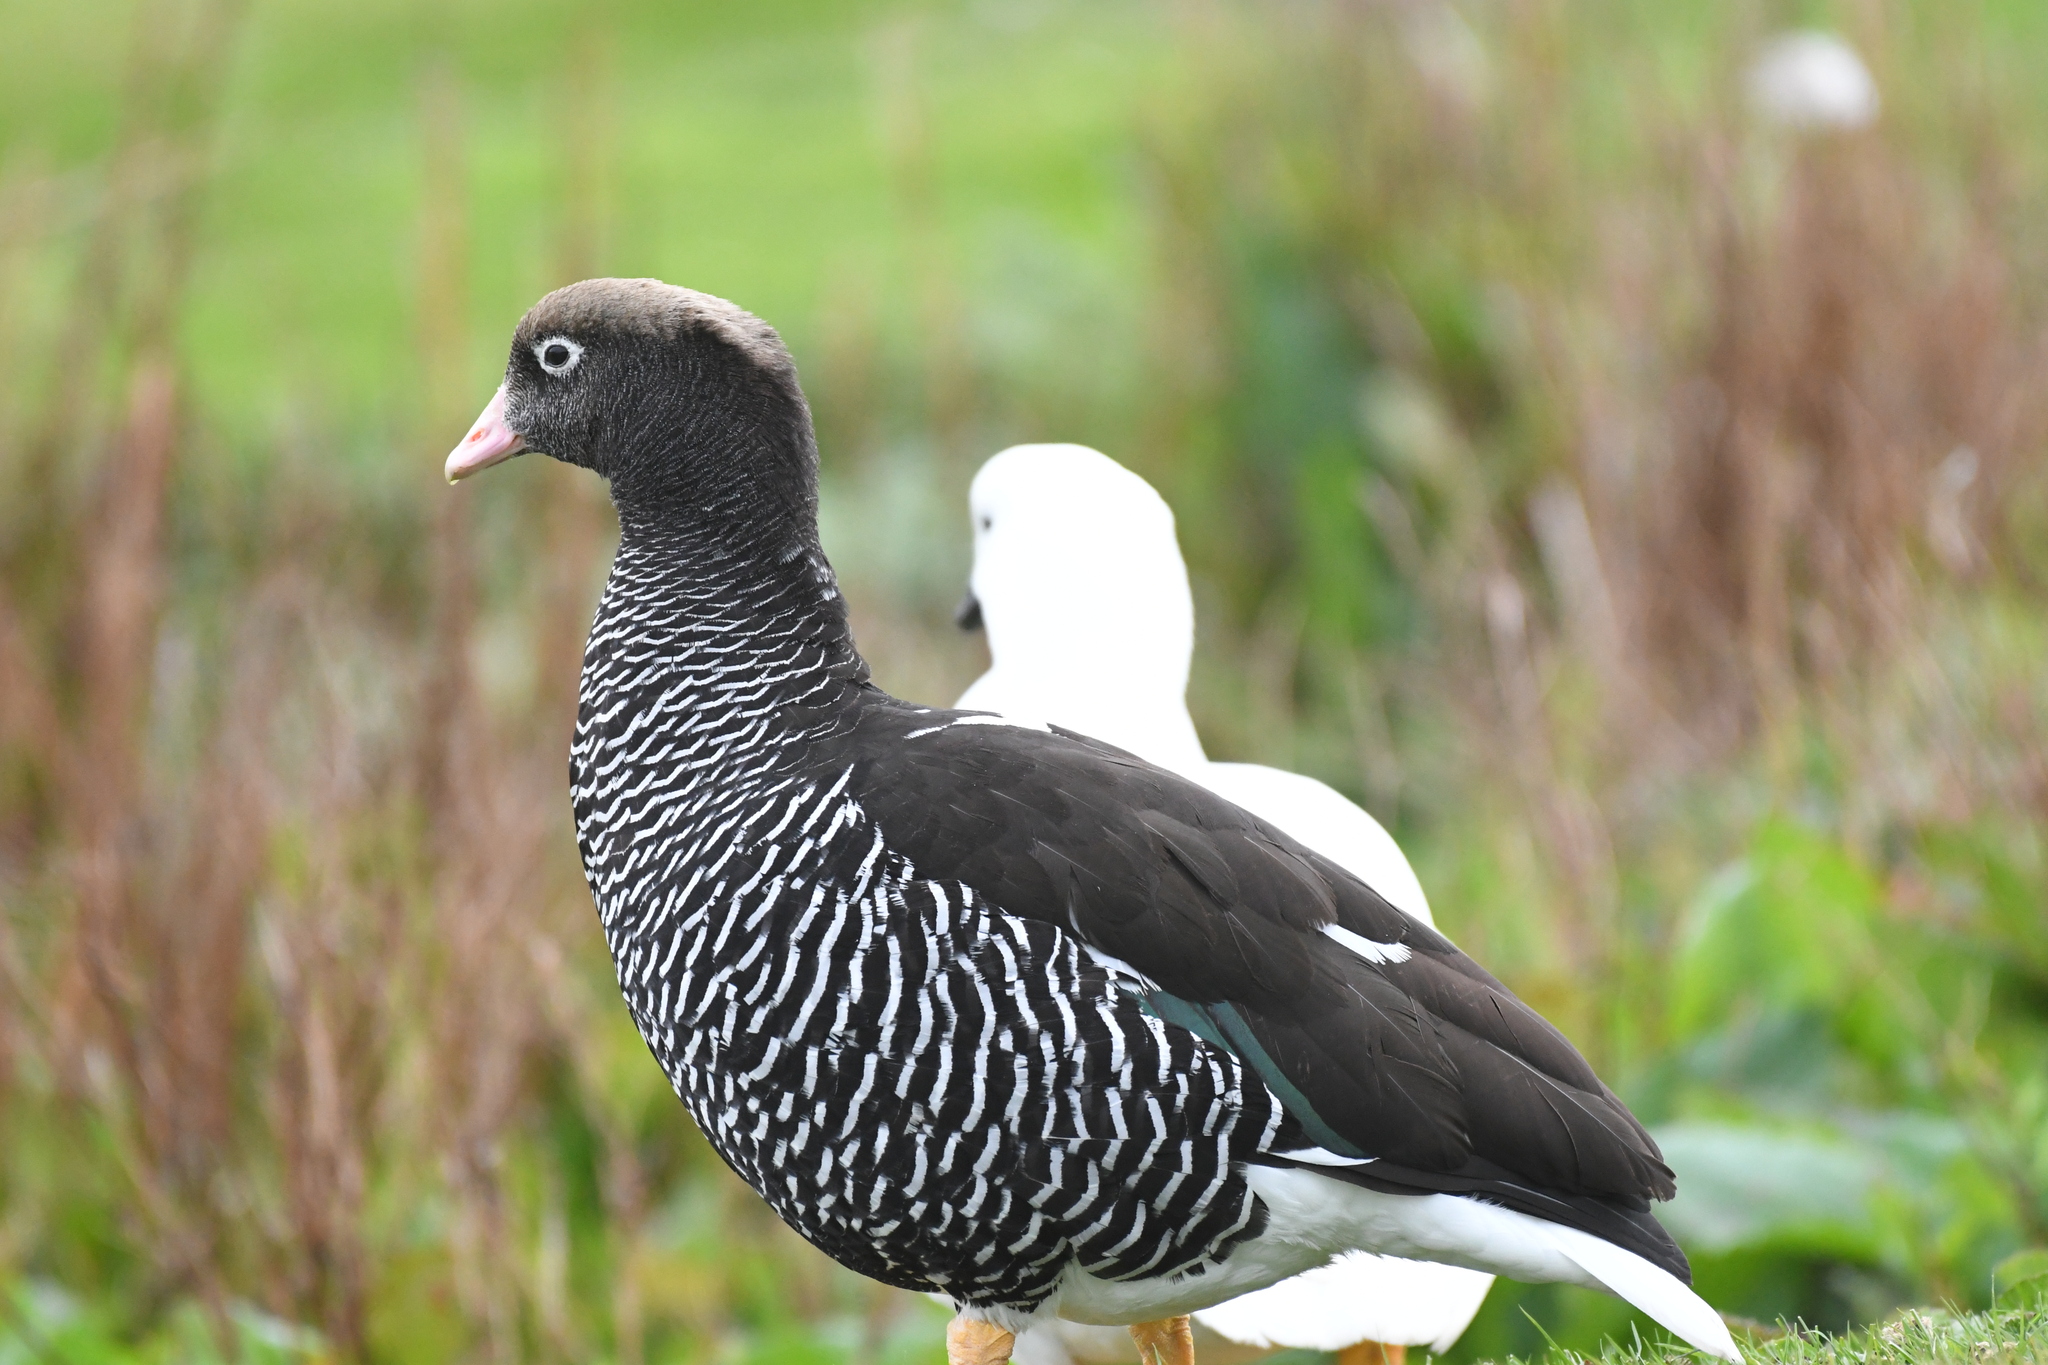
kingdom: Animalia
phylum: Chordata
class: Aves
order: Anseriformes
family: Anatidae
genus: Chloephaga
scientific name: Chloephaga hybrida
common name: Kelp goose
